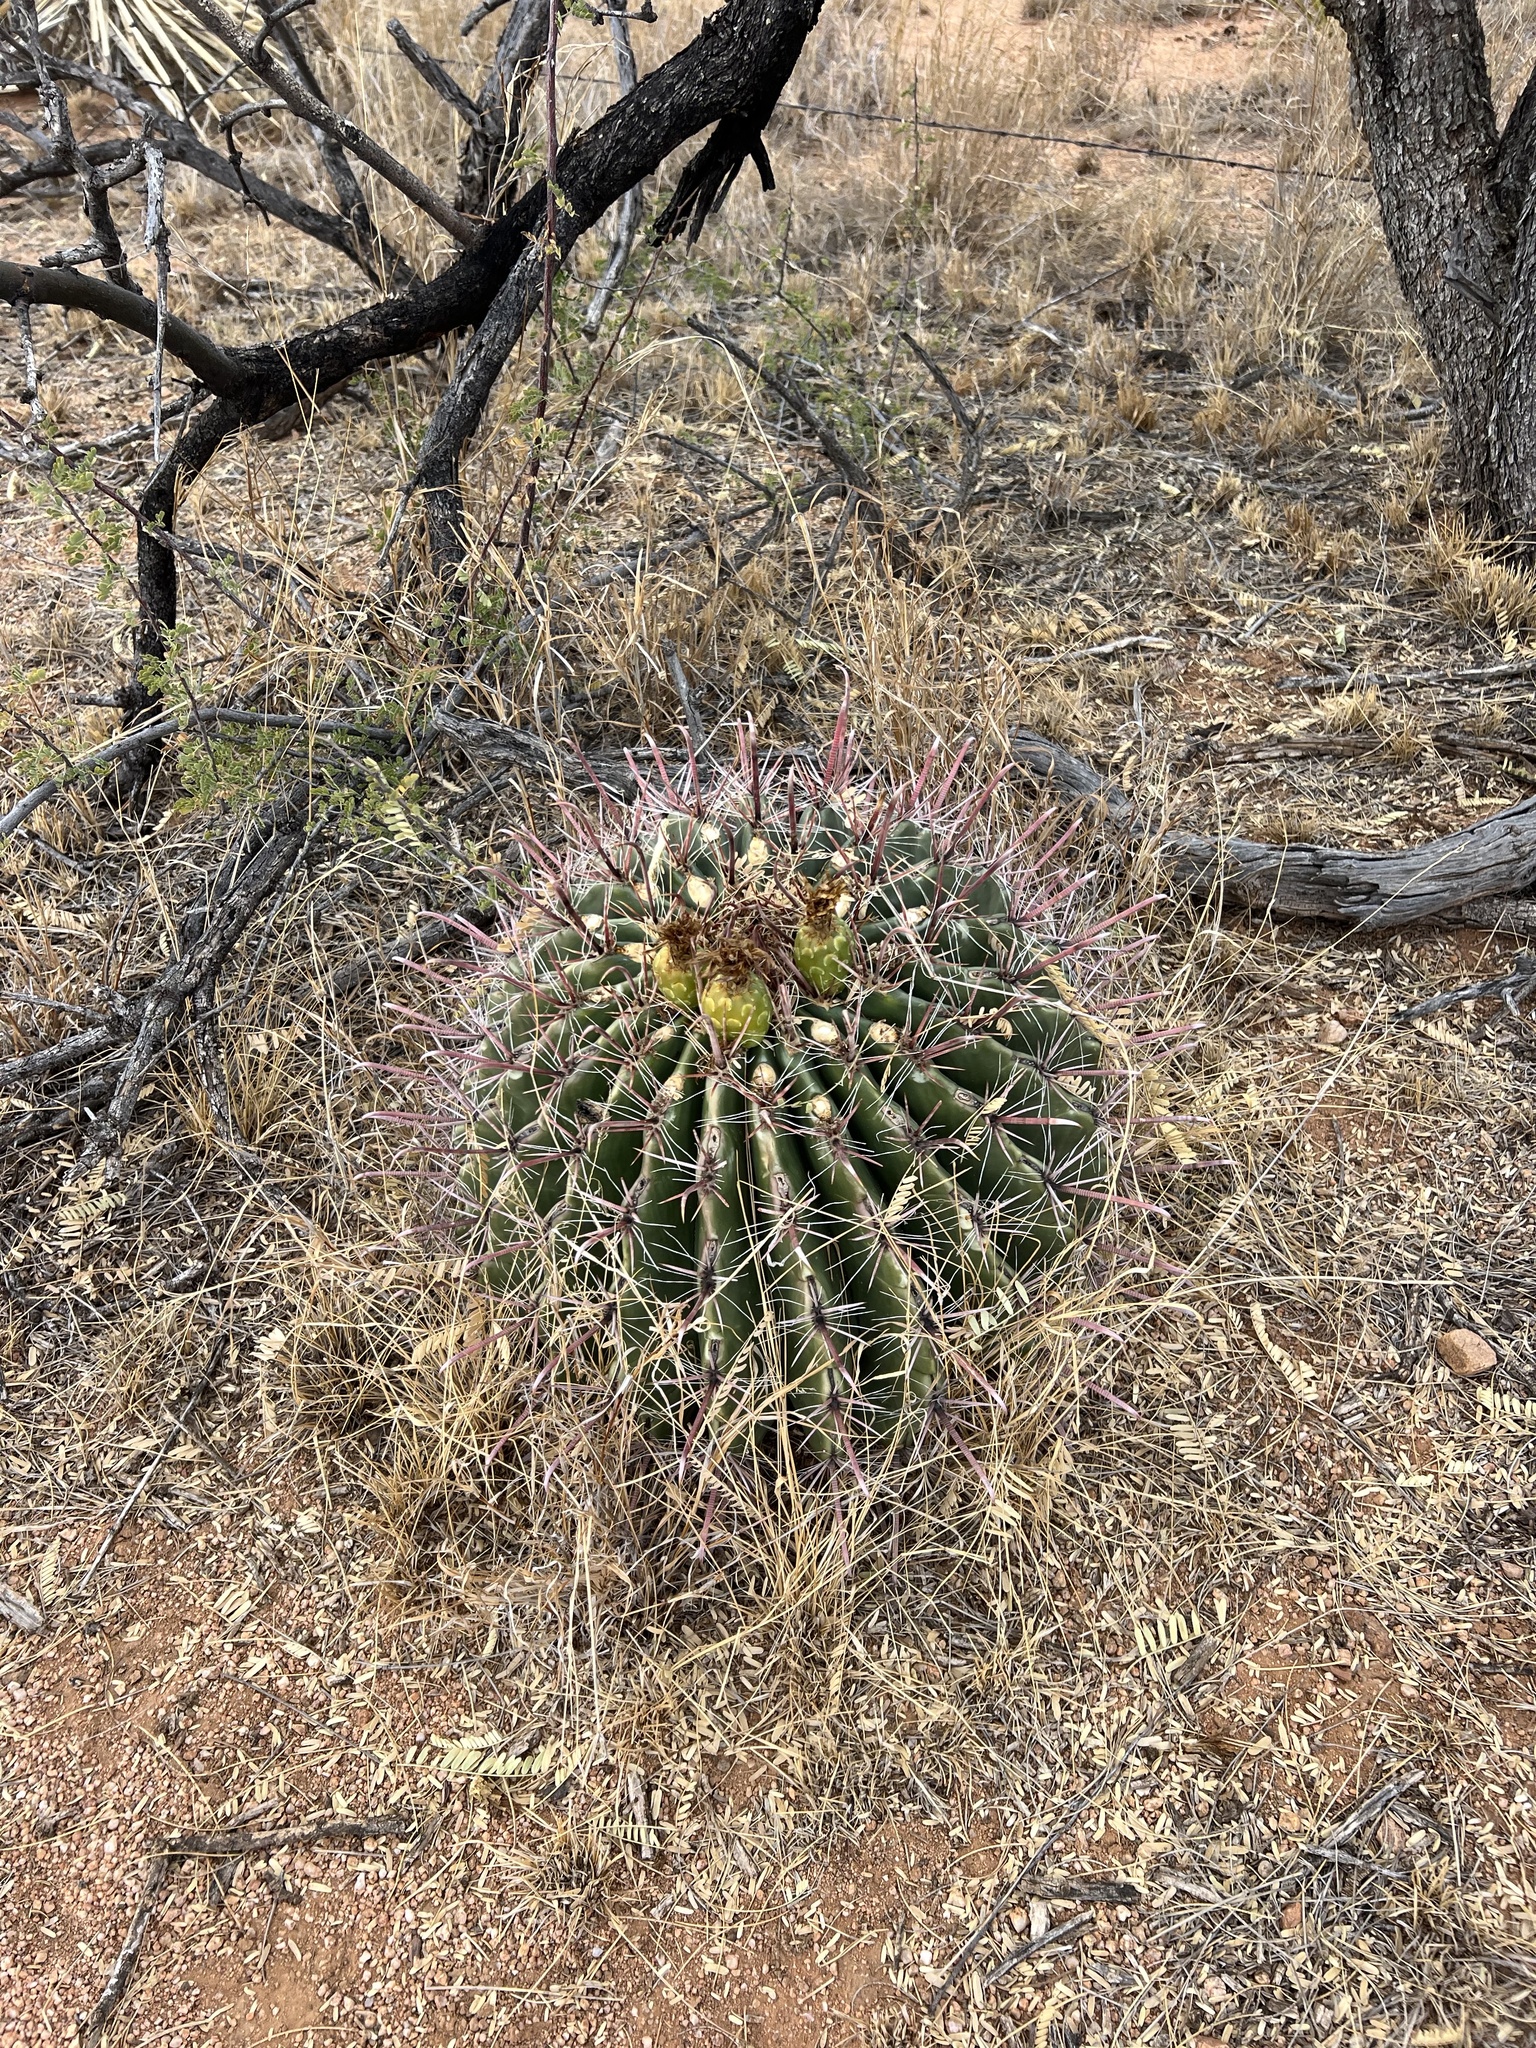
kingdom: Plantae
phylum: Tracheophyta
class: Magnoliopsida
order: Caryophyllales
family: Cactaceae
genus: Ferocactus
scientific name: Ferocactus wislizeni
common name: Candy barrel cactus
